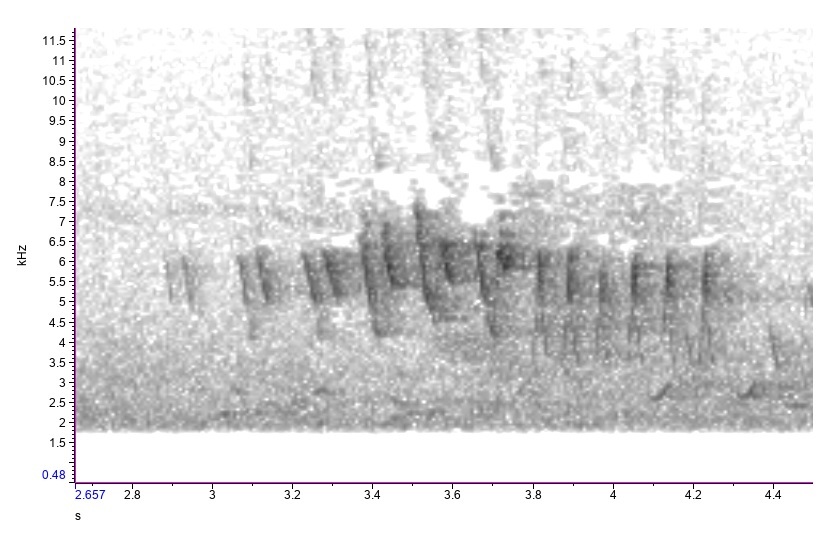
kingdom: Animalia
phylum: Chordata
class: Aves
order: Passeriformes
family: Parulidae
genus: Cardellina
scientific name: Cardellina pusilla
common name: Wilson's warbler
